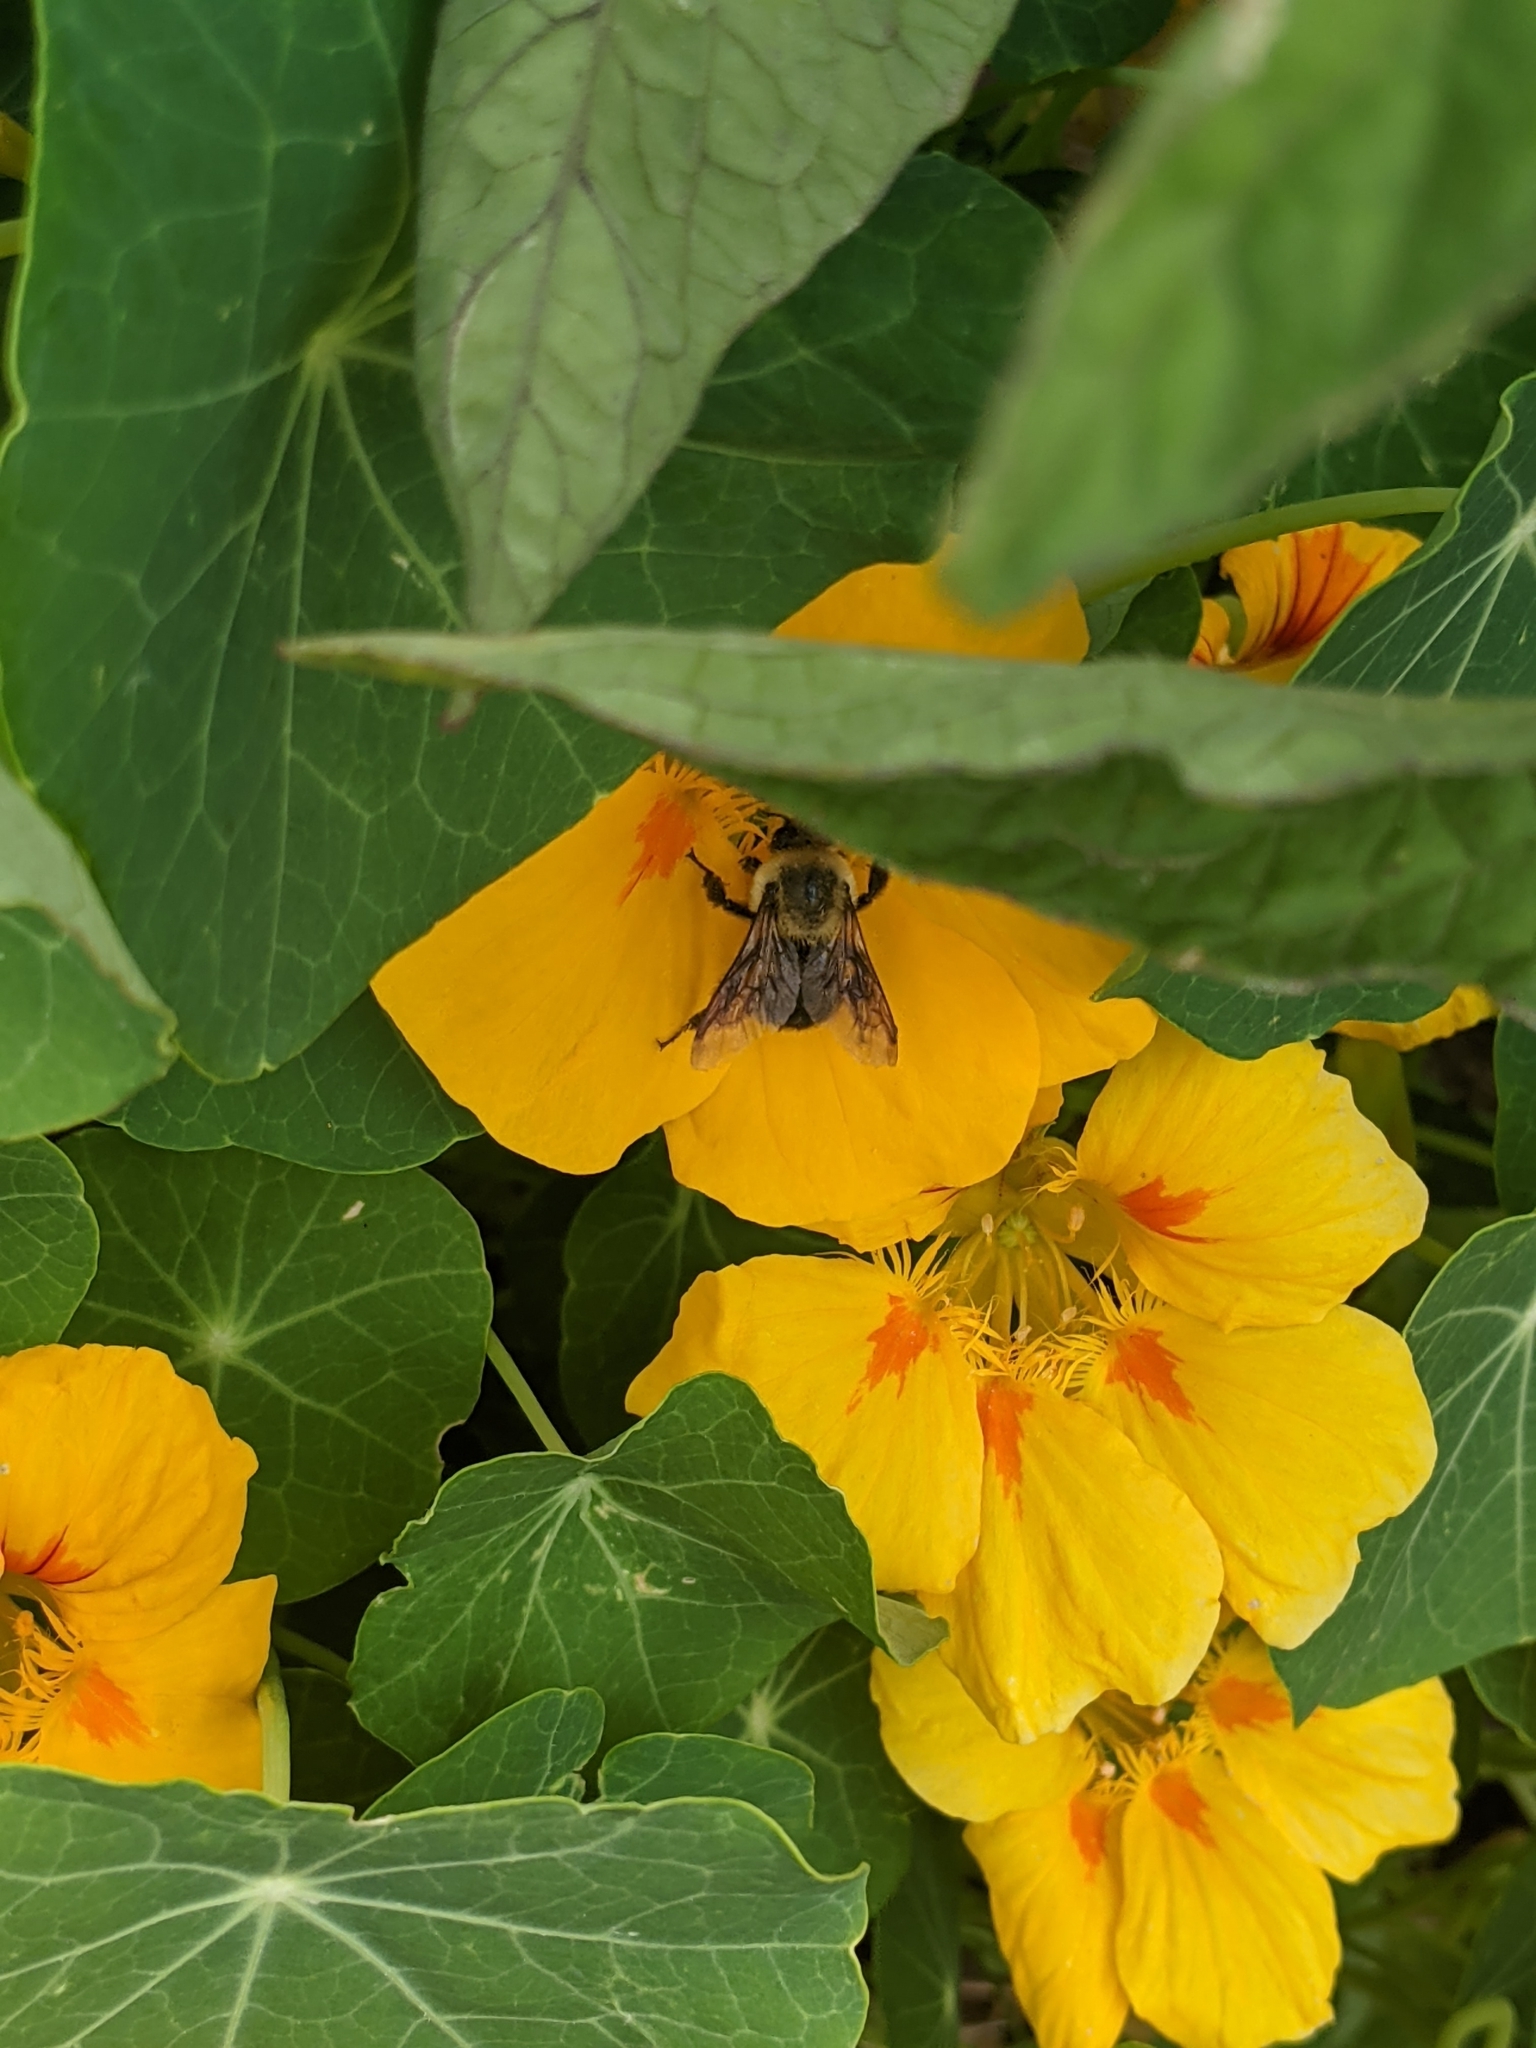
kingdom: Animalia
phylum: Arthropoda
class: Insecta
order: Hymenoptera
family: Apidae
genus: Bombus
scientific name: Bombus griseocollis
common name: Brown-belted bumble bee
